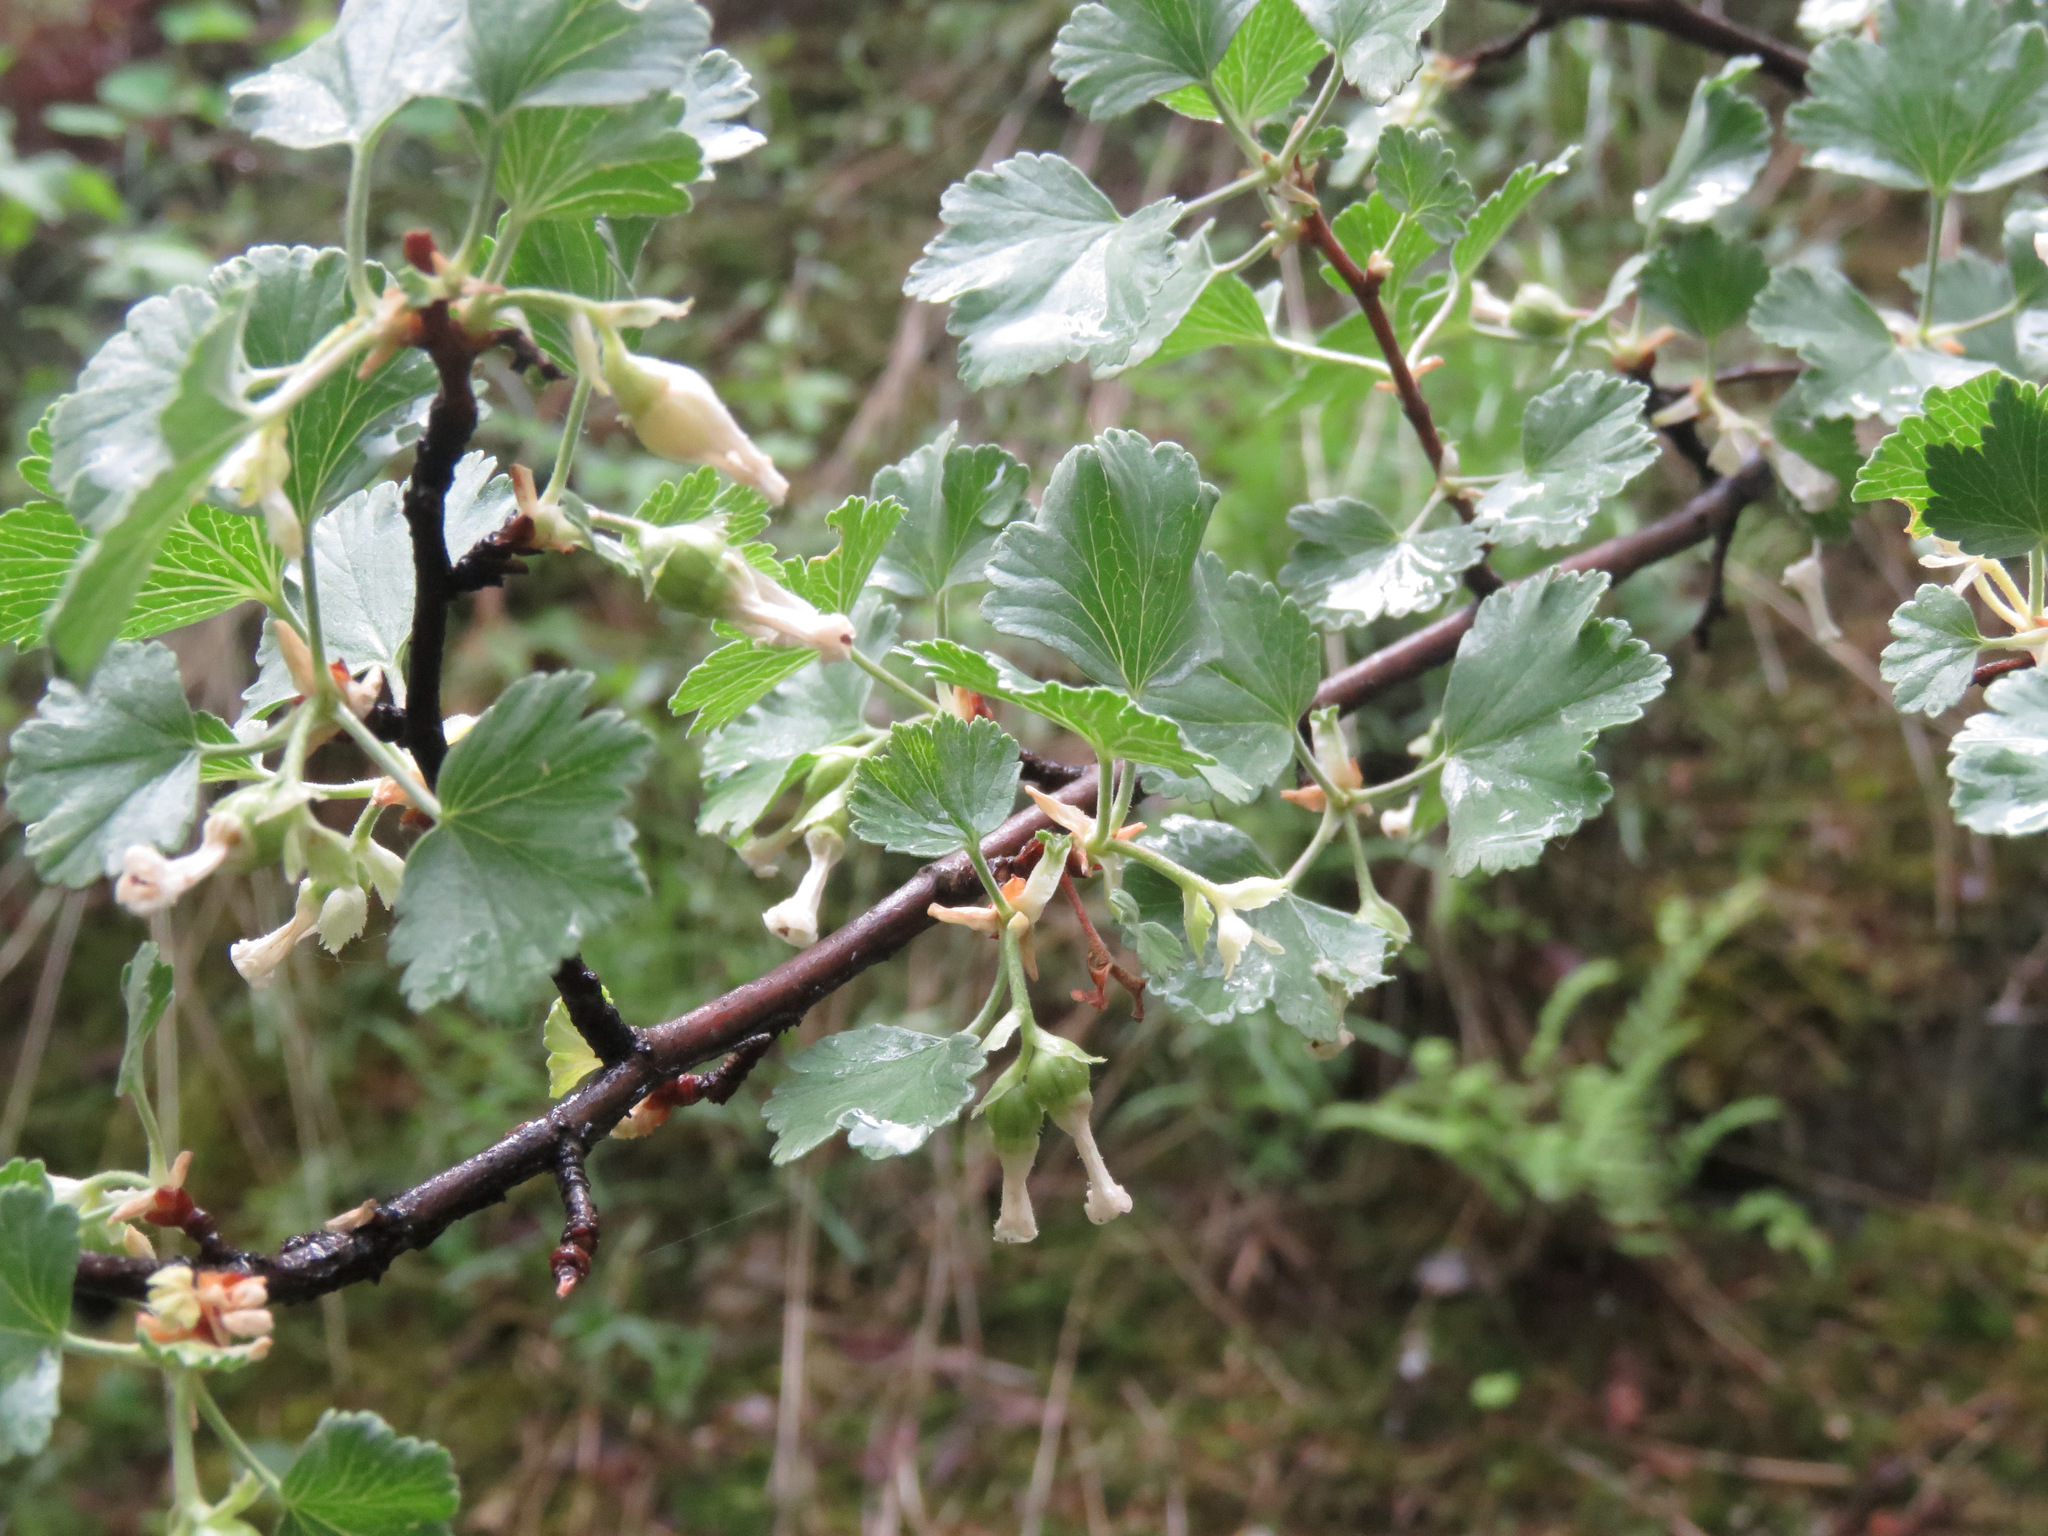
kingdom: Plantae
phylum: Tracheophyta
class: Magnoliopsida
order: Saxifragales
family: Grossulariaceae
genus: Ribes
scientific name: Ribes cereum
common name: Wax currant
